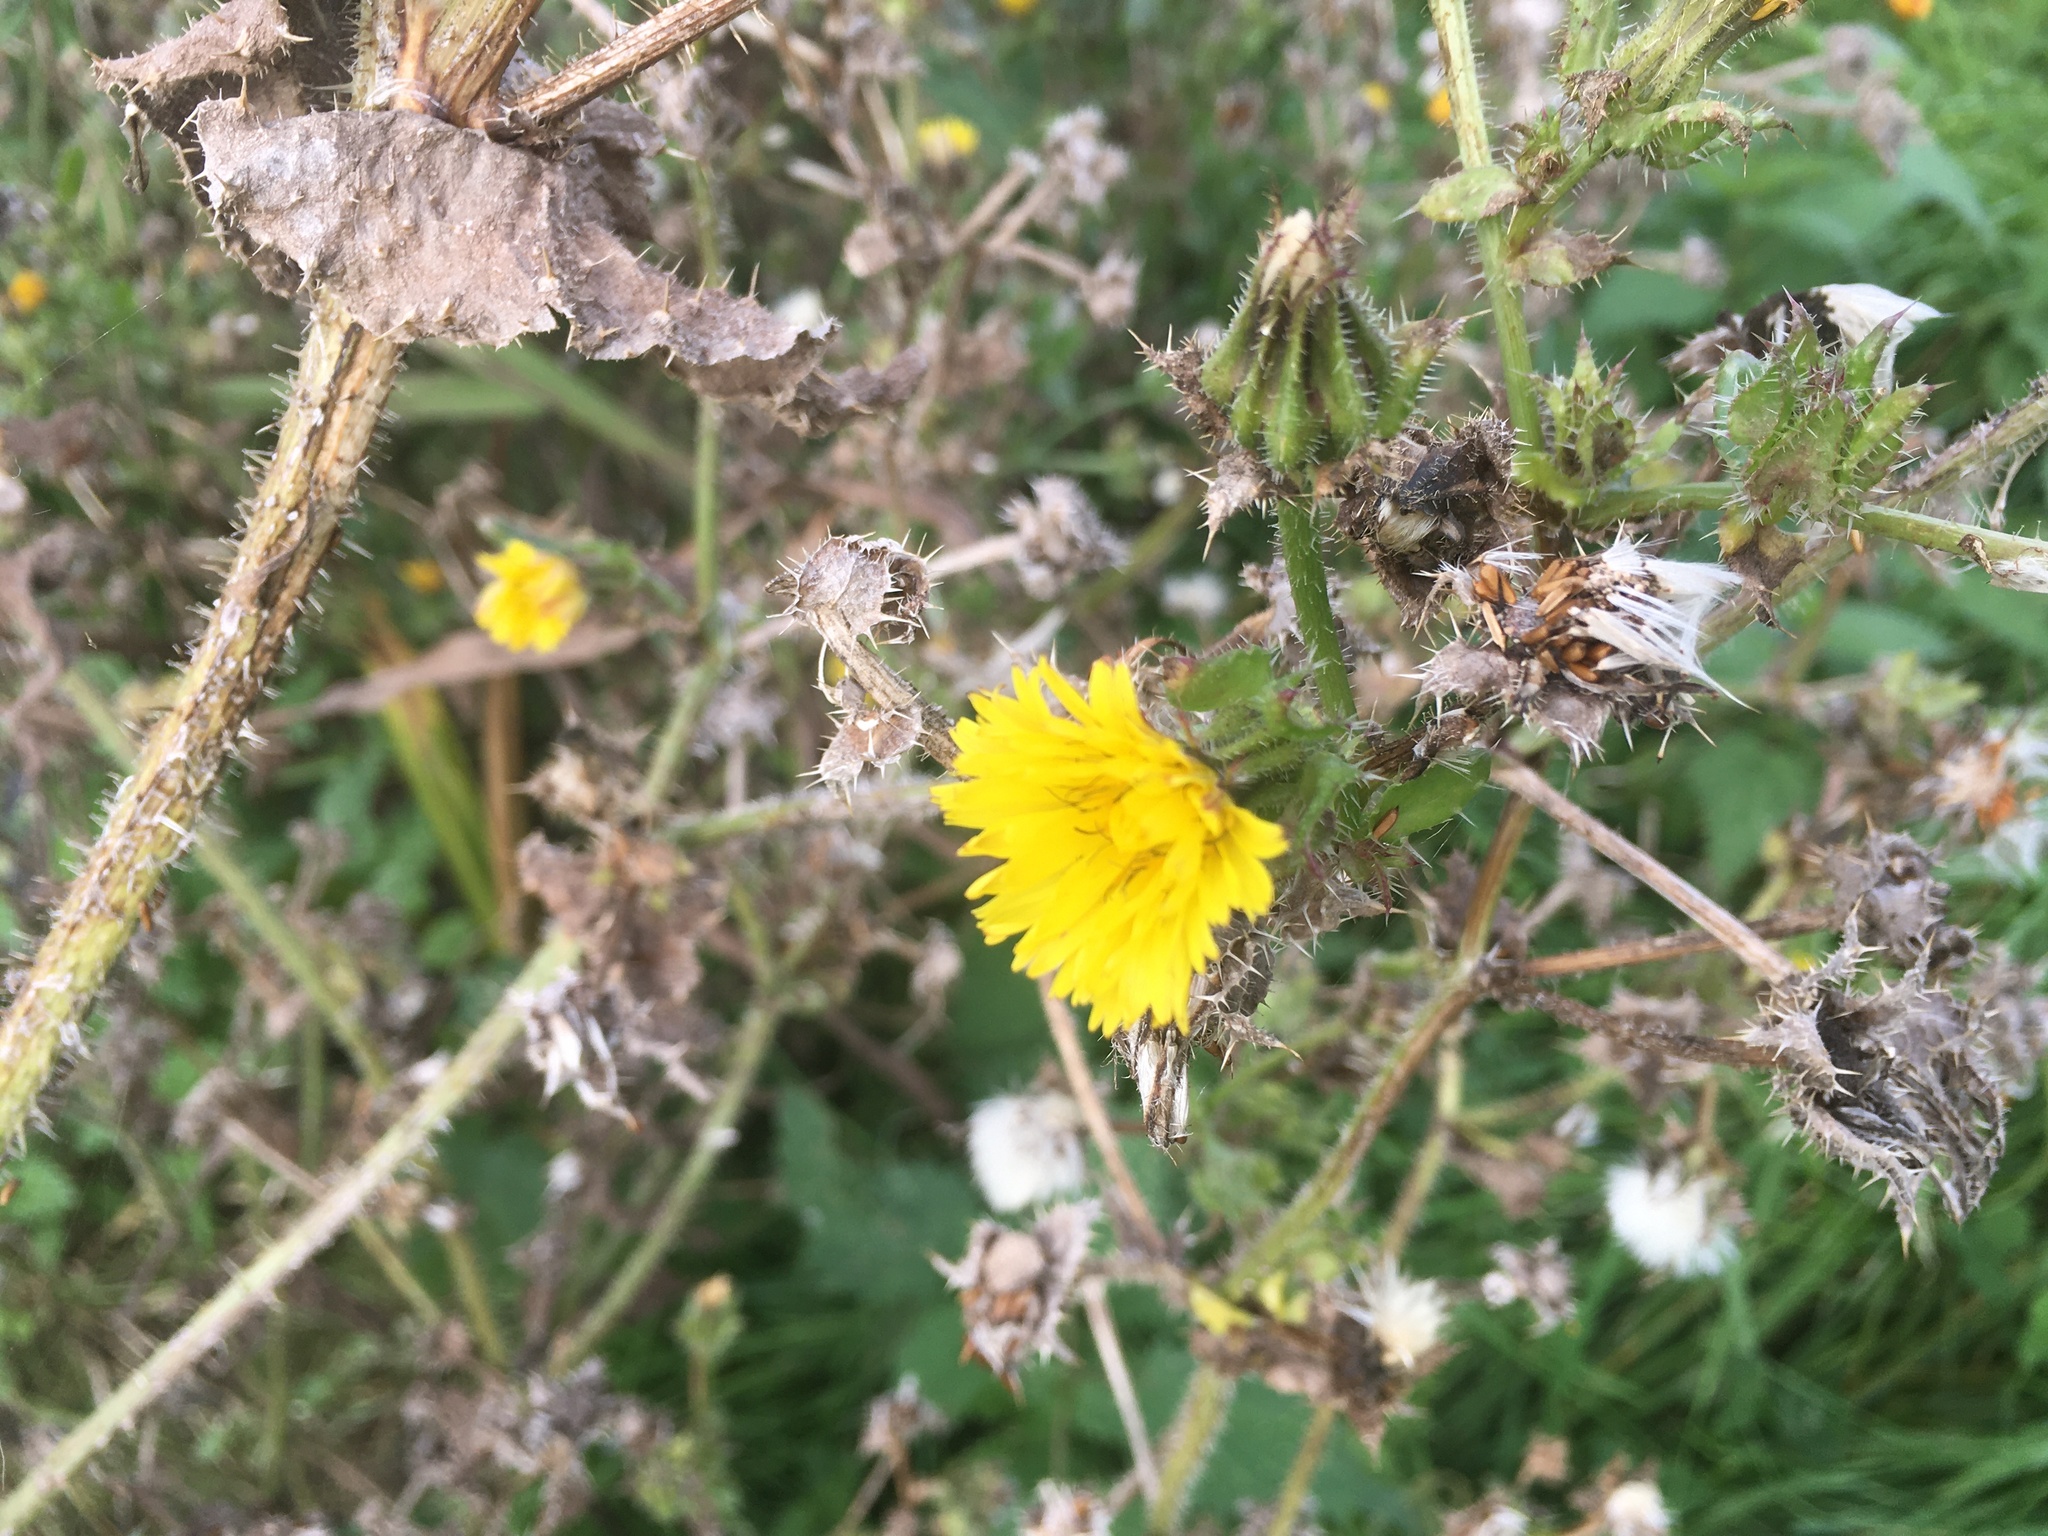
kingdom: Plantae
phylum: Tracheophyta
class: Magnoliopsida
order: Asterales
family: Asteraceae
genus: Helminthotheca
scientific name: Helminthotheca echioides
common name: Ox-tongue
